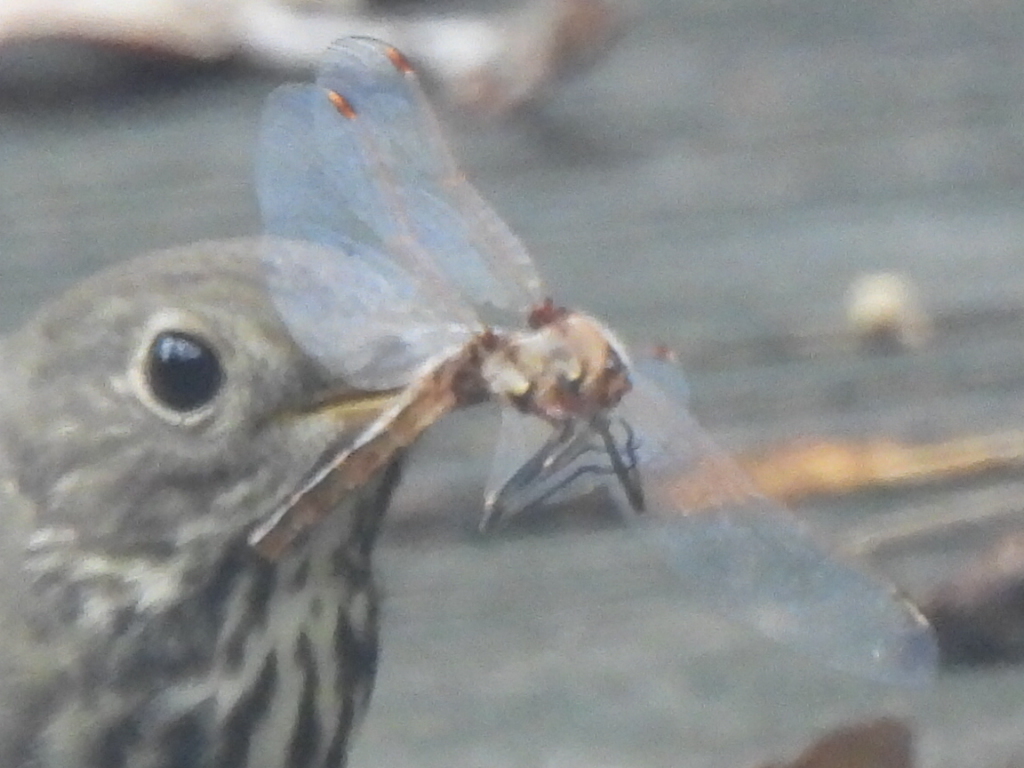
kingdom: Animalia
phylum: Arthropoda
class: Insecta
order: Odonata
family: Libellulidae
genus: Sympetrum
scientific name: Sympetrum corruptum
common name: Variegated meadowhawk
